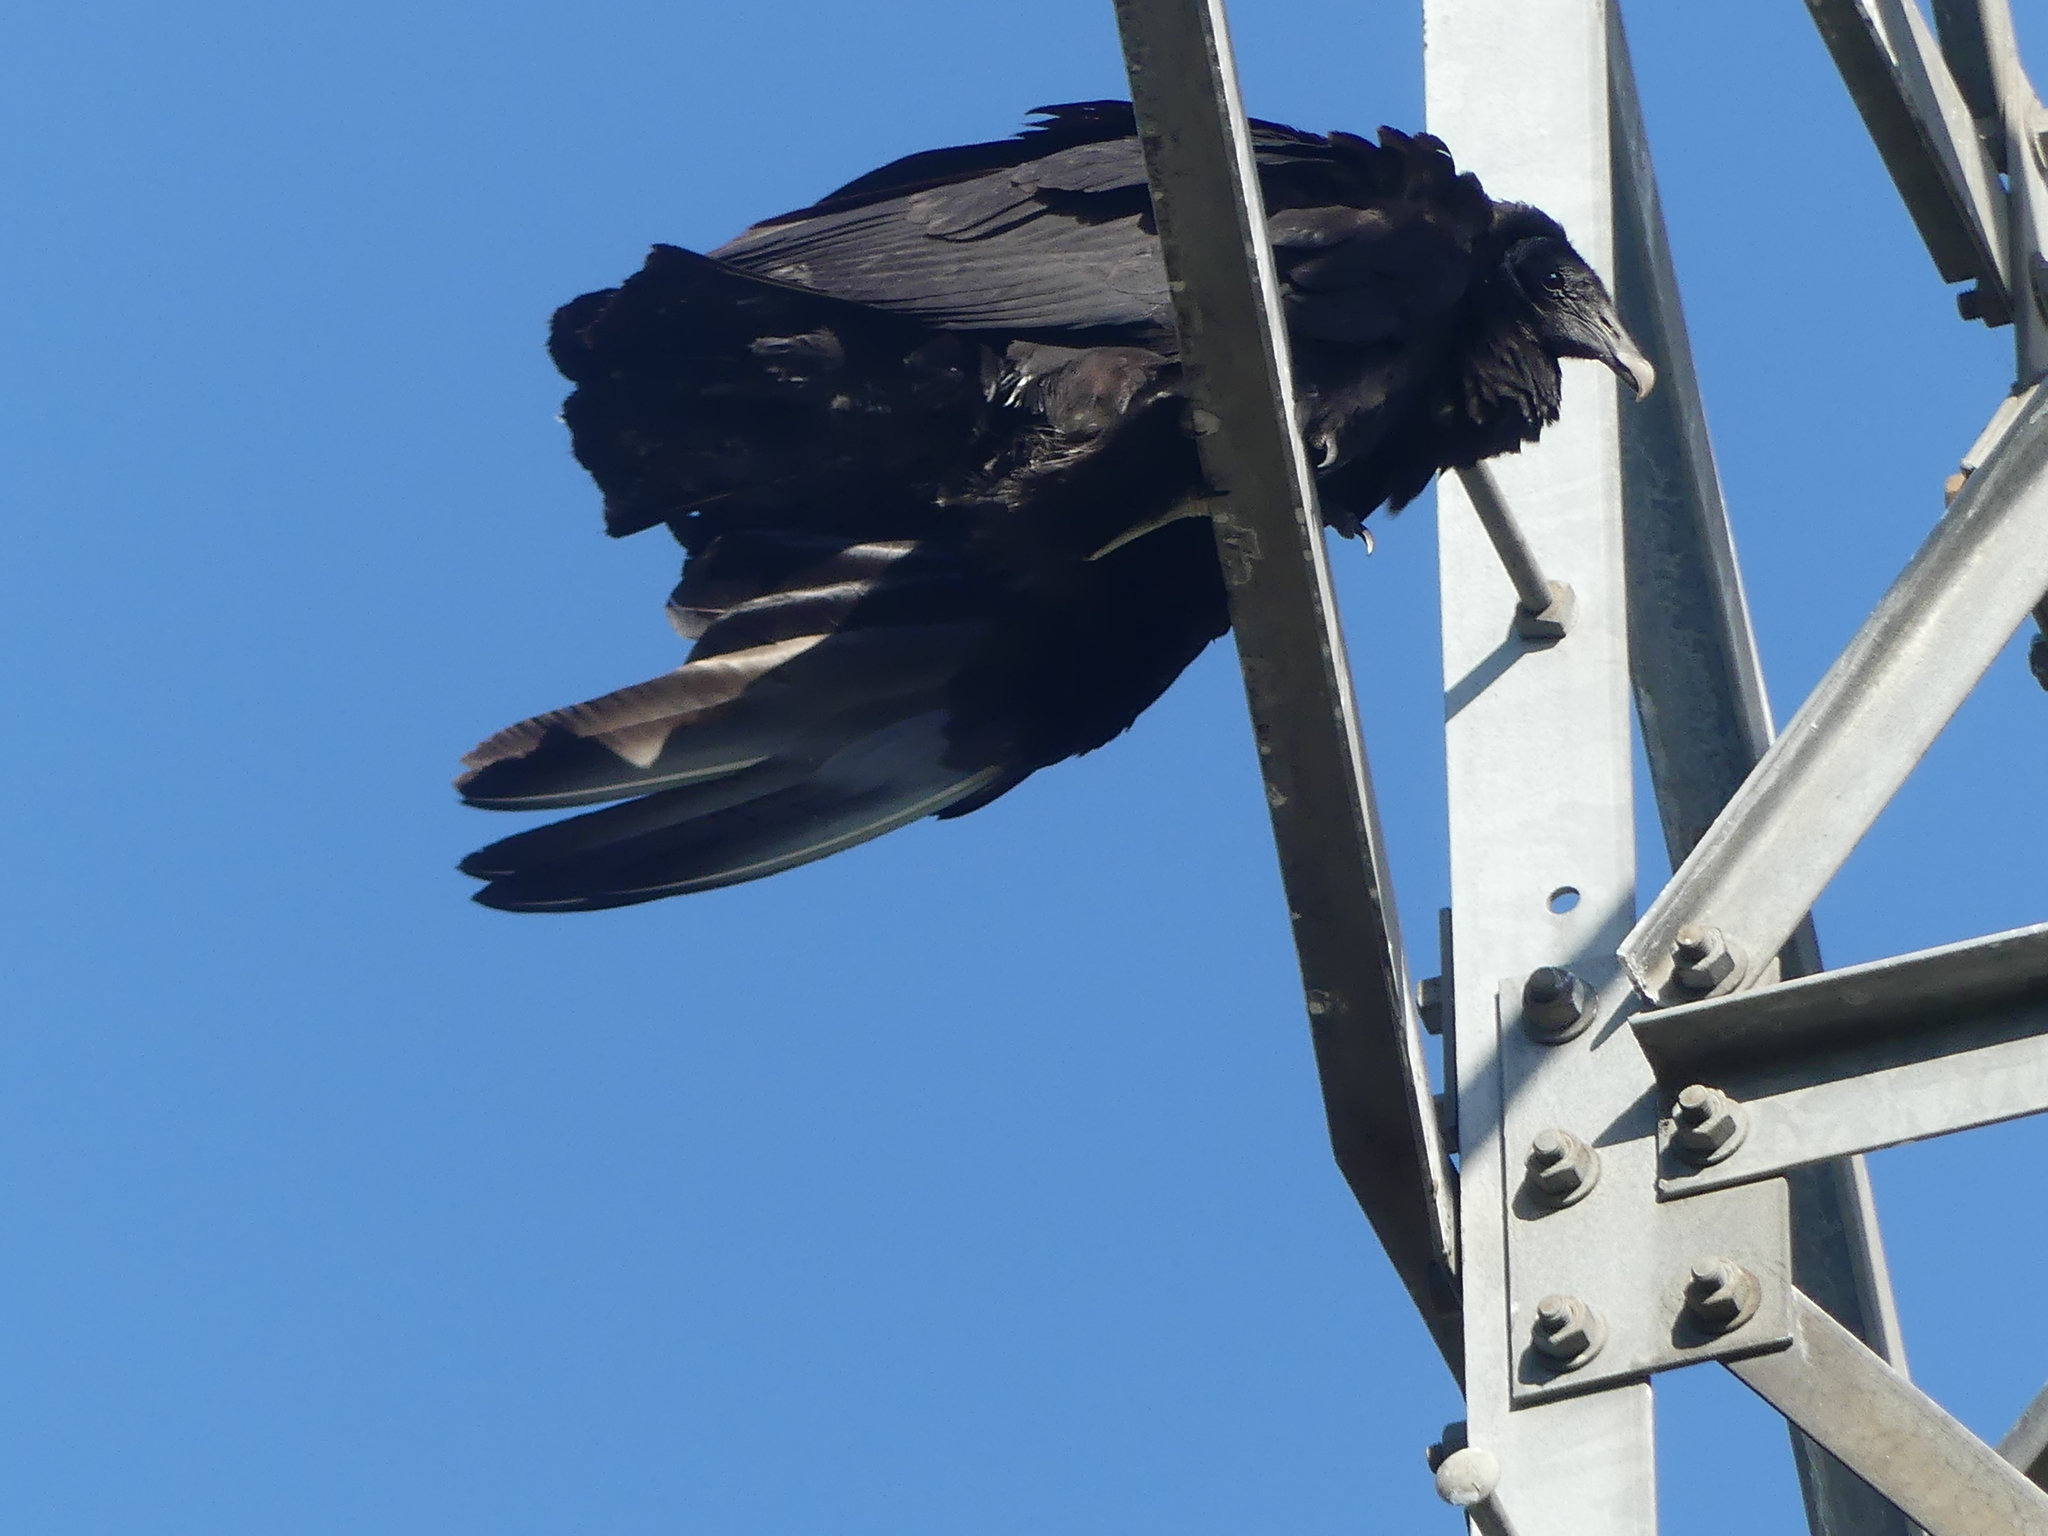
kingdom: Animalia
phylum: Chordata
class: Aves
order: Accipitriformes
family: Cathartidae
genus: Coragyps
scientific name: Coragyps atratus
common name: Black vulture
